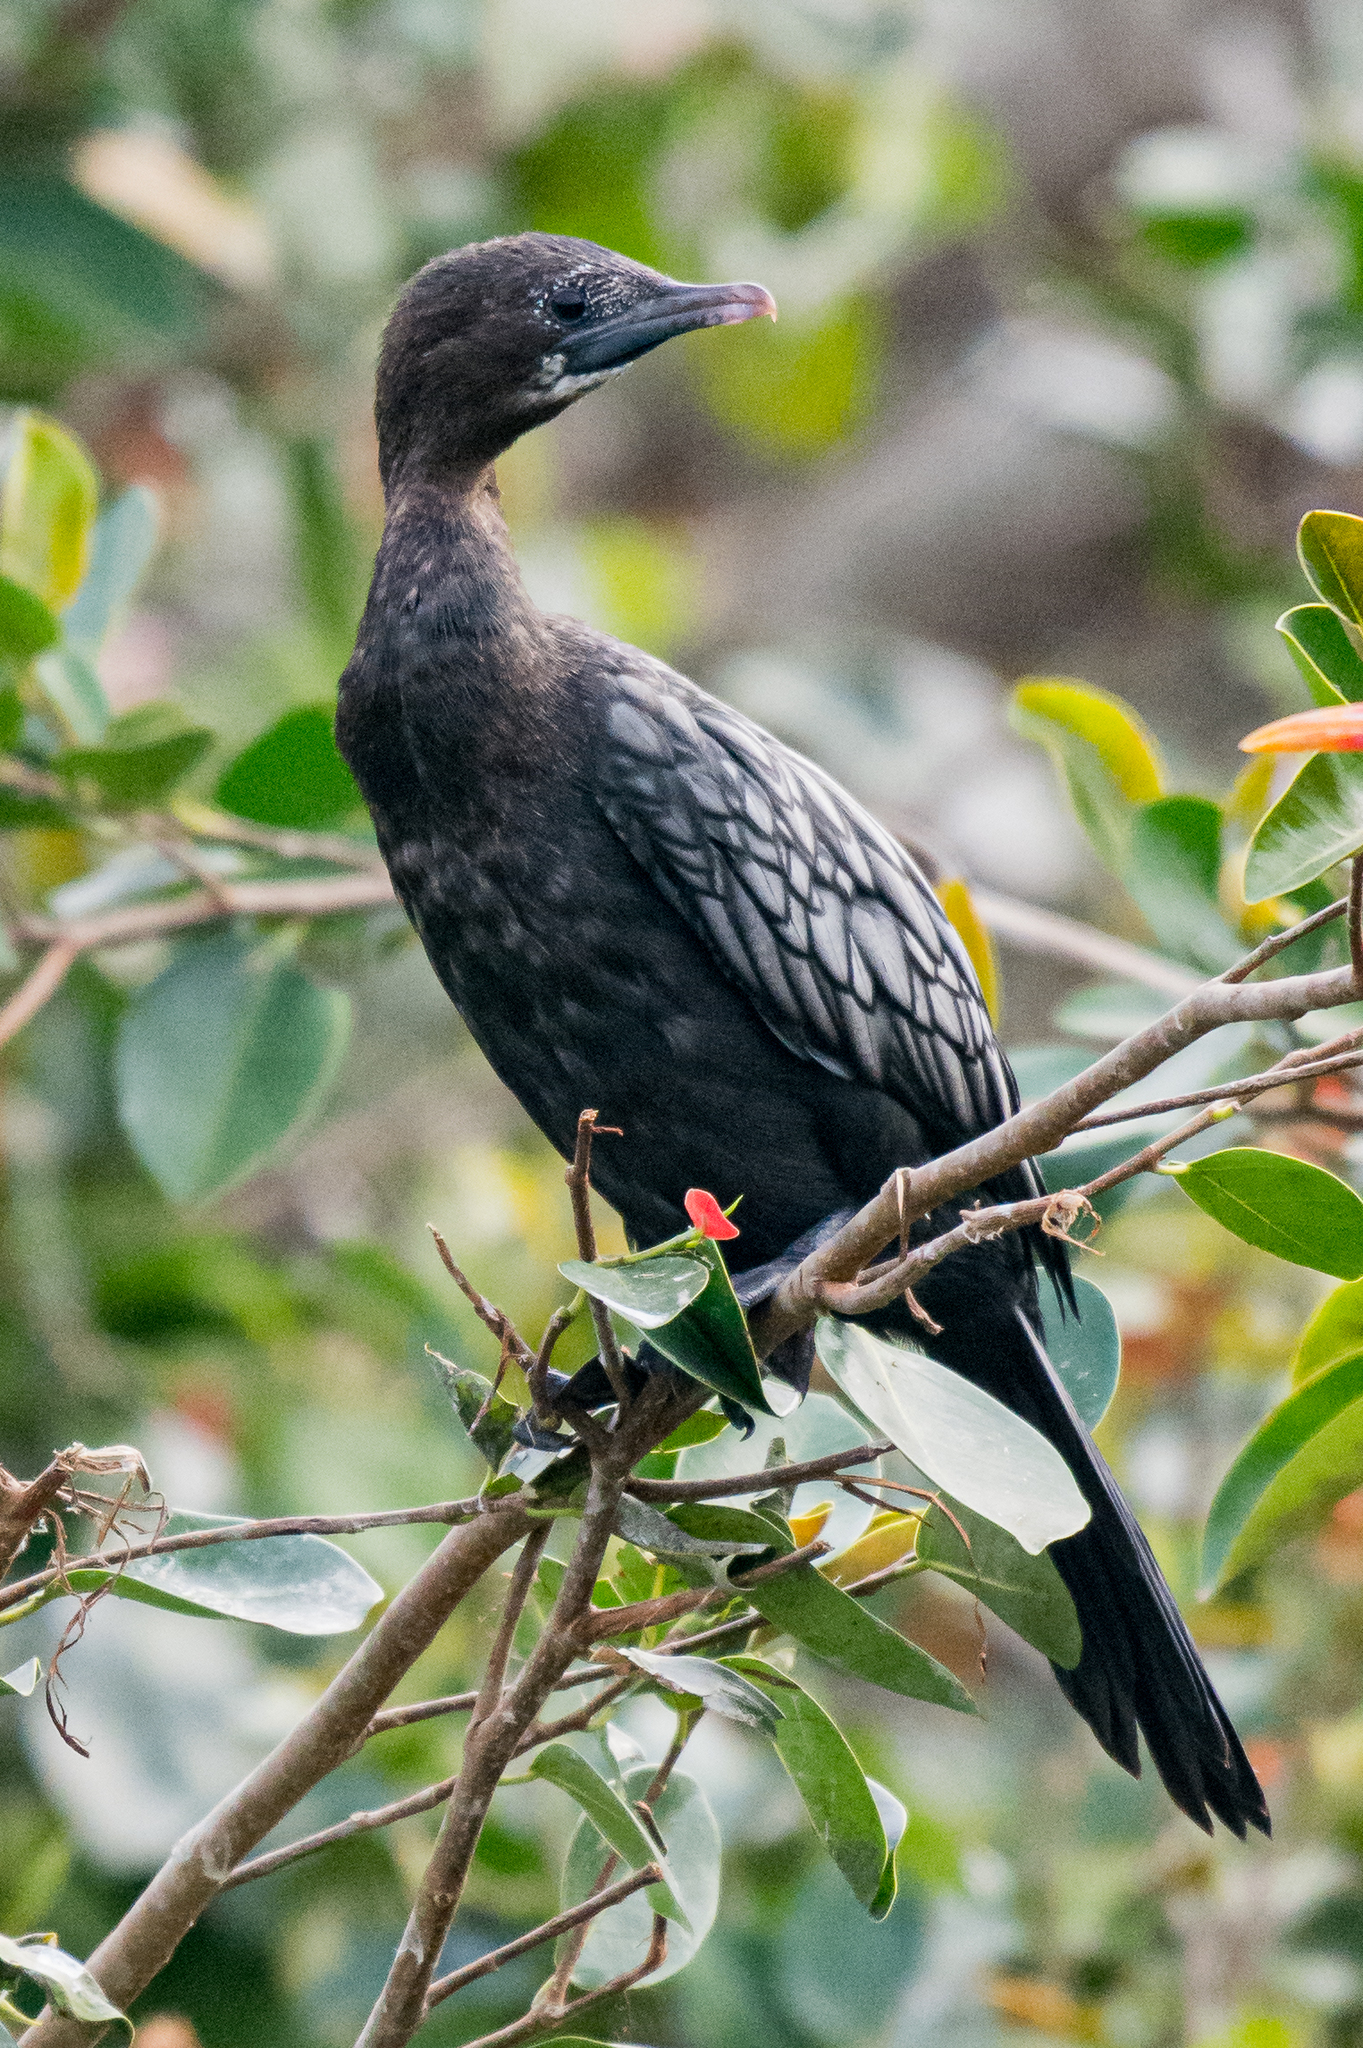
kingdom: Animalia
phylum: Chordata
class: Aves
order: Suliformes
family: Phalacrocoracidae
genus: Microcarbo
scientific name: Microcarbo niger
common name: Little cormorant
